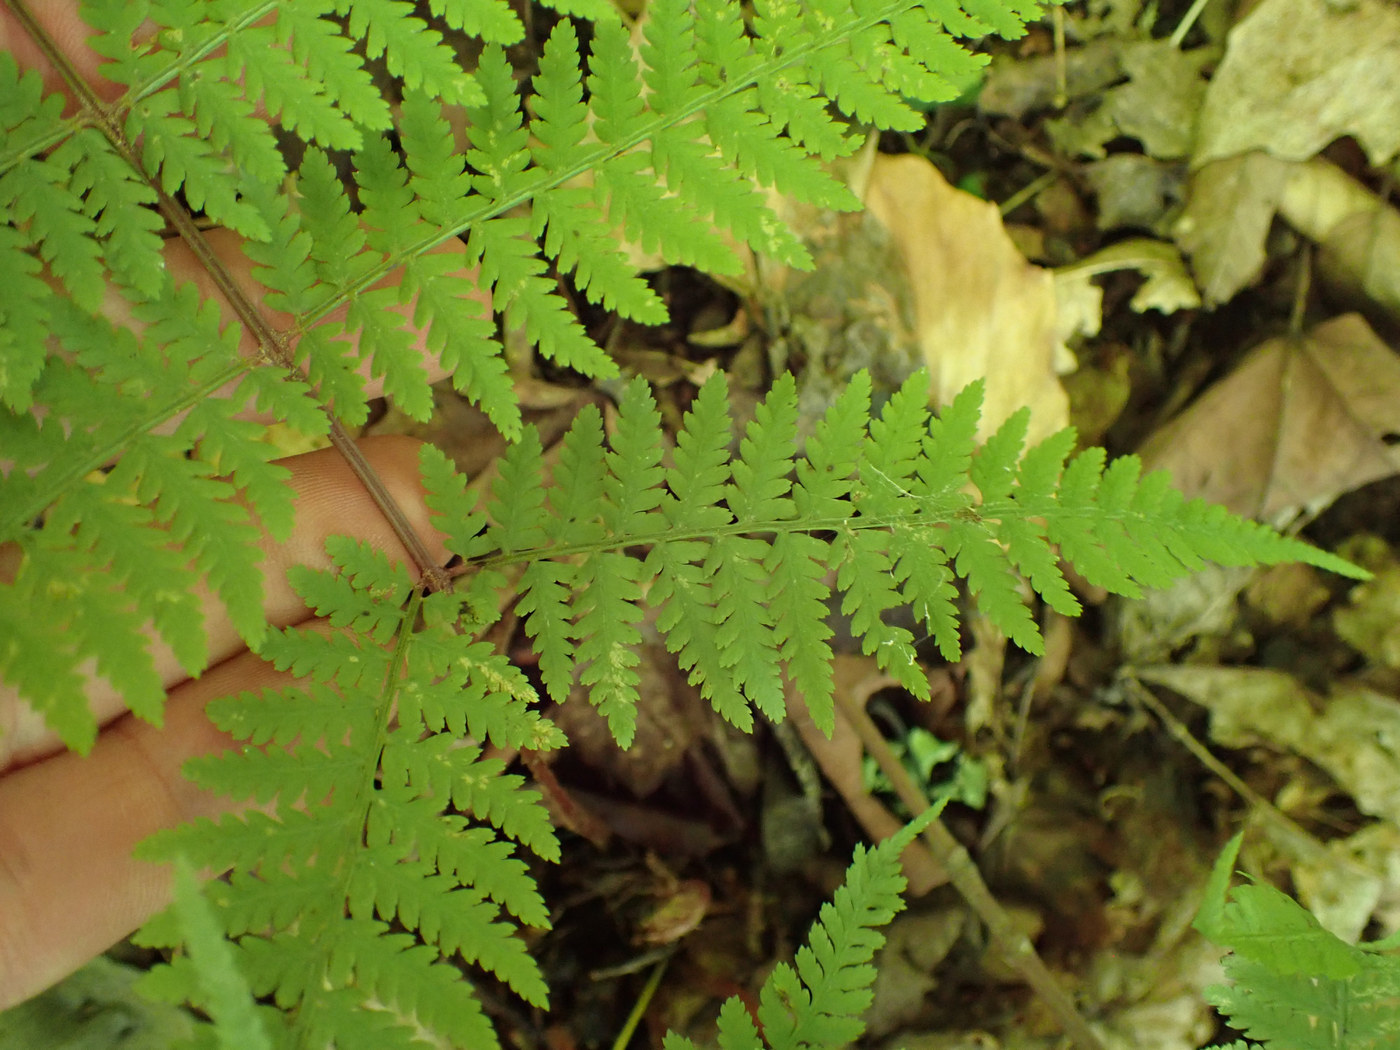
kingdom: Plantae
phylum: Tracheophyta
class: Polypodiopsida
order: Polypodiales
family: Athyriaceae
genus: Athyrium
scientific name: Athyrium asplenioides
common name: Southern lady fern
